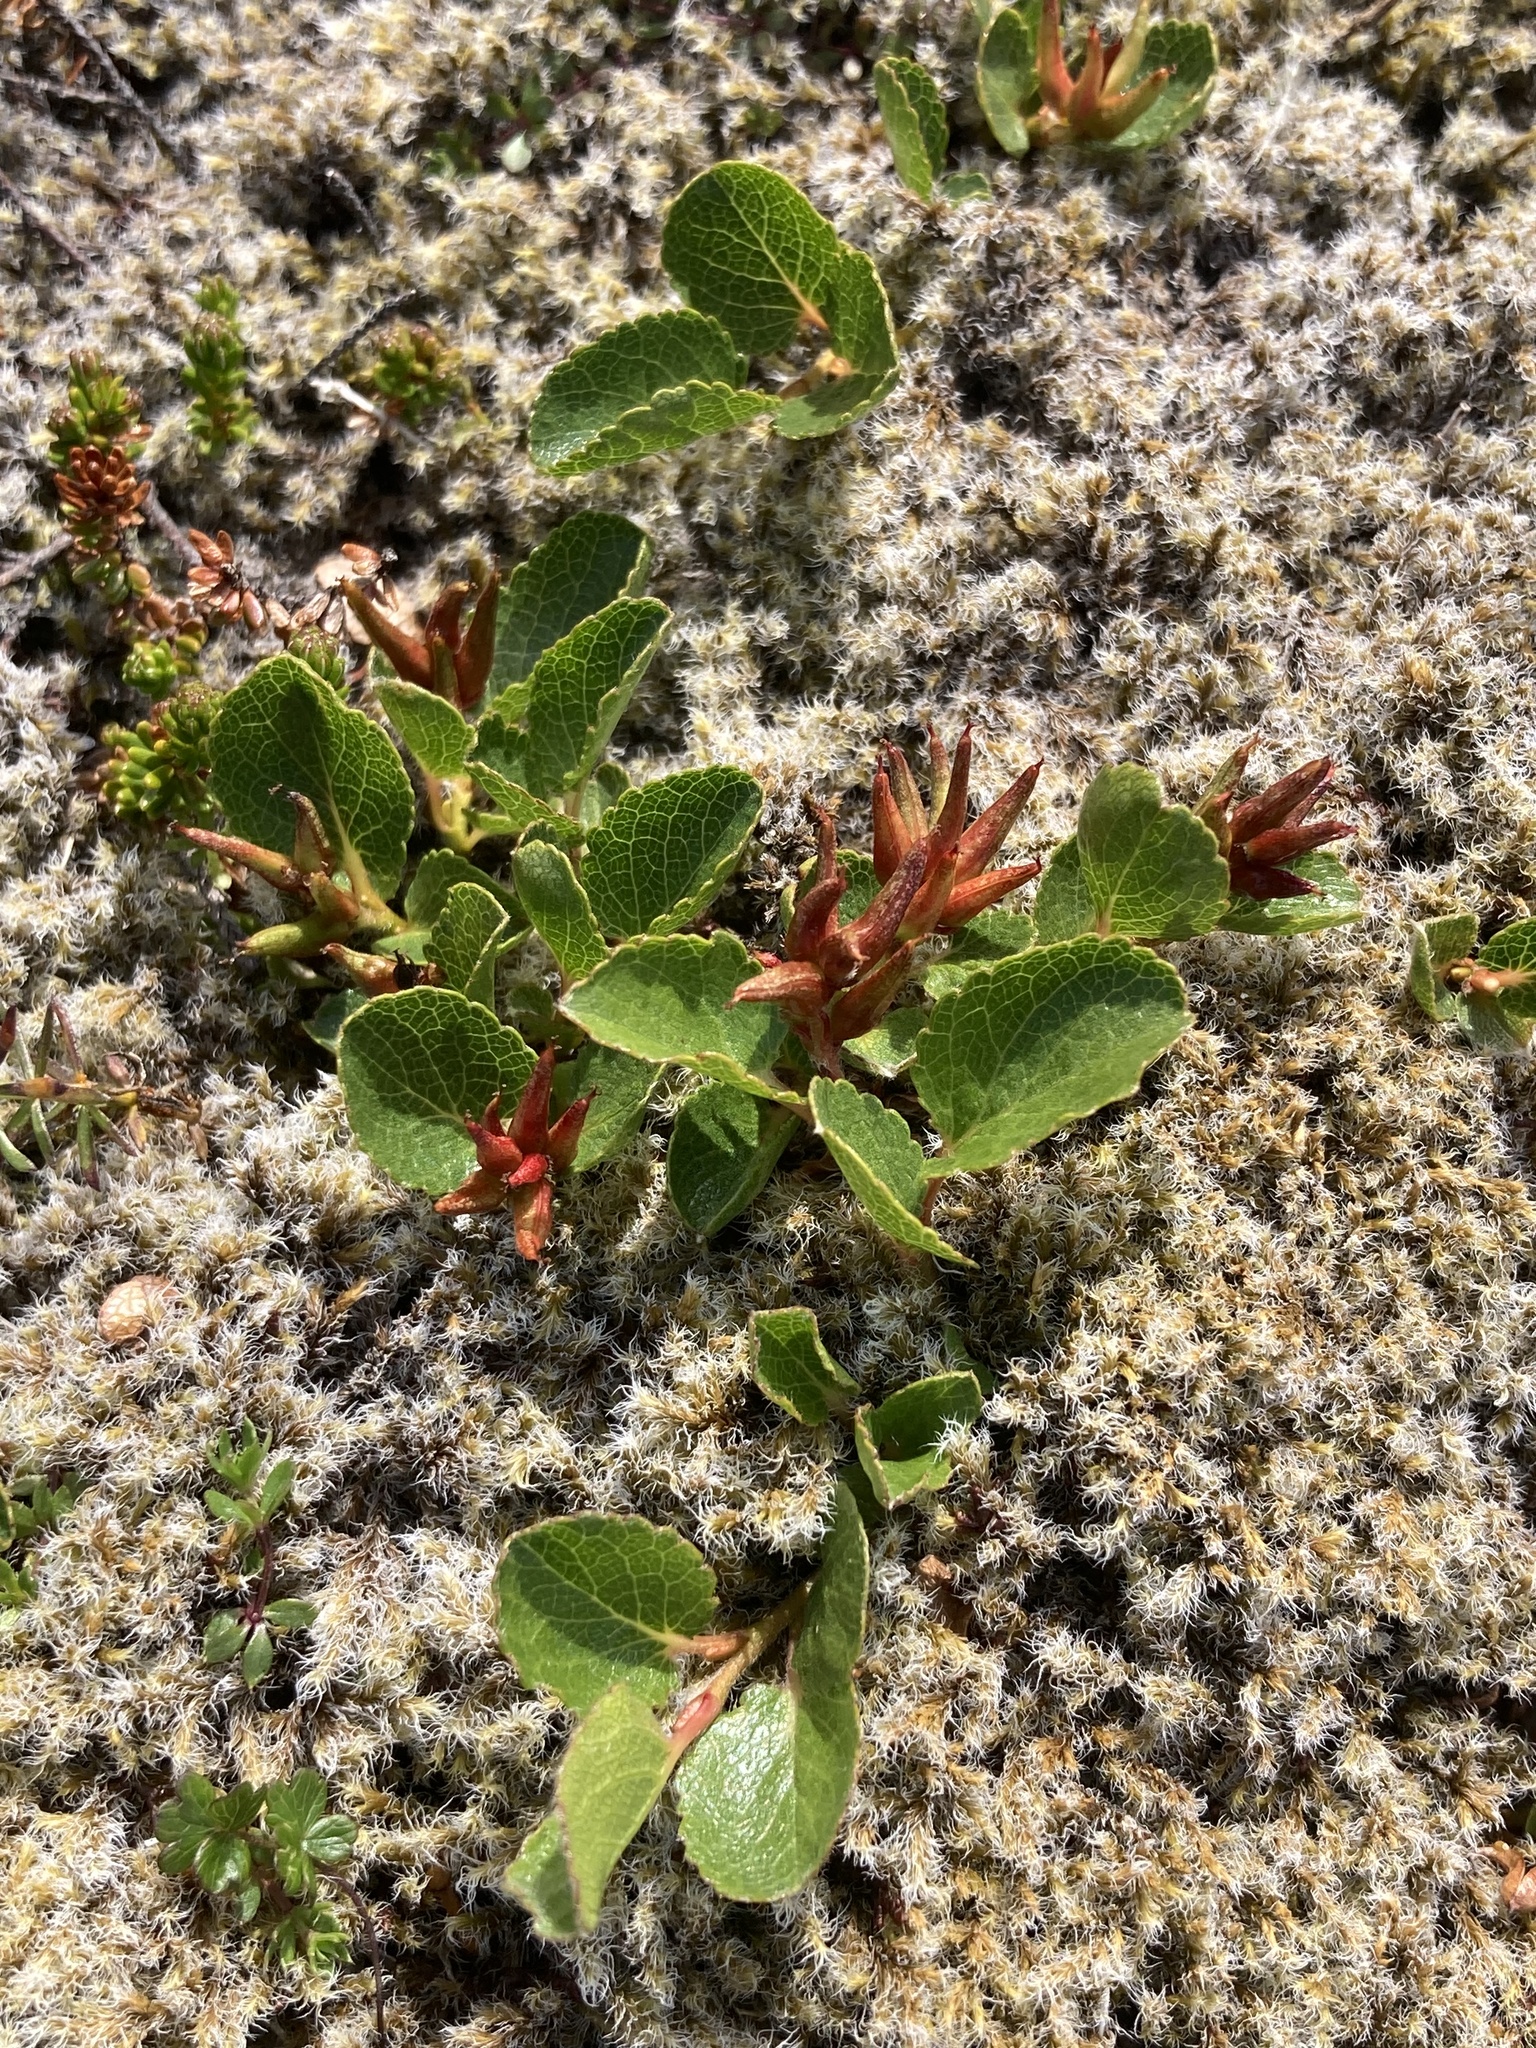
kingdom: Plantae
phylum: Tracheophyta
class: Magnoliopsida
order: Malpighiales
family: Salicaceae
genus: Salix
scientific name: Salix herbacea
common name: Dwarf willow
